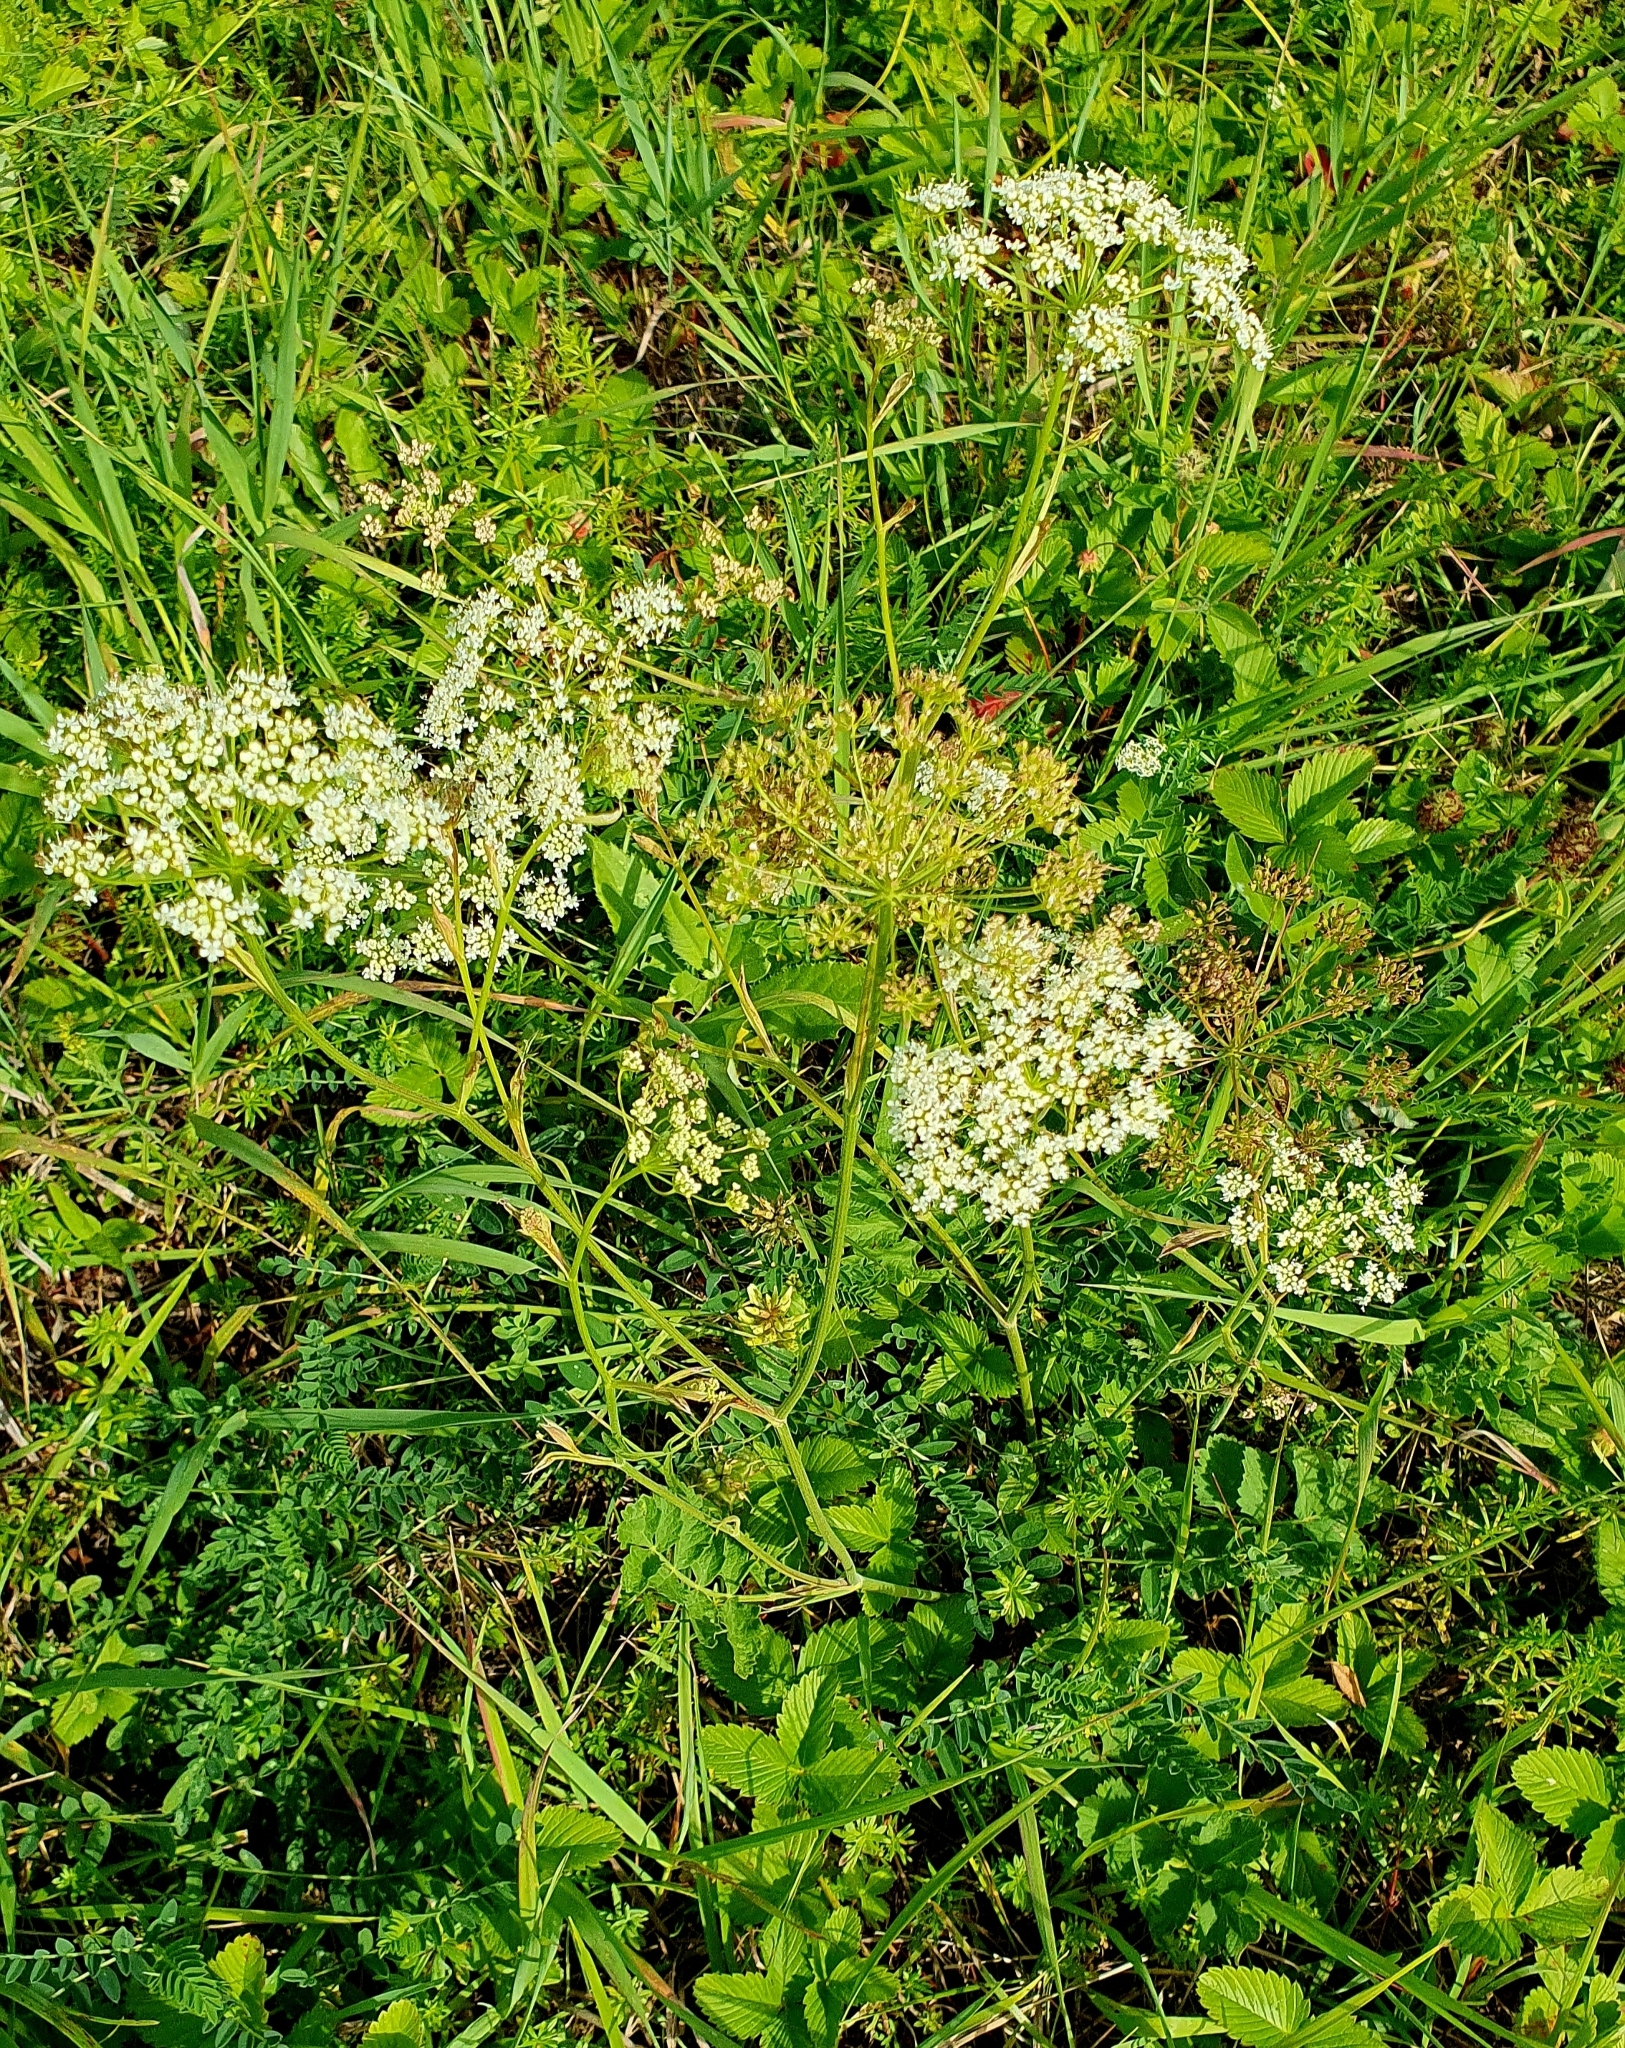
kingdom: Plantae
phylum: Tracheophyta
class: Magnoliopsida
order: Apiales
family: Apiaceae
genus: Pimpinella
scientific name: Pimpinella saxifraga
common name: Burnet-saxifrage
